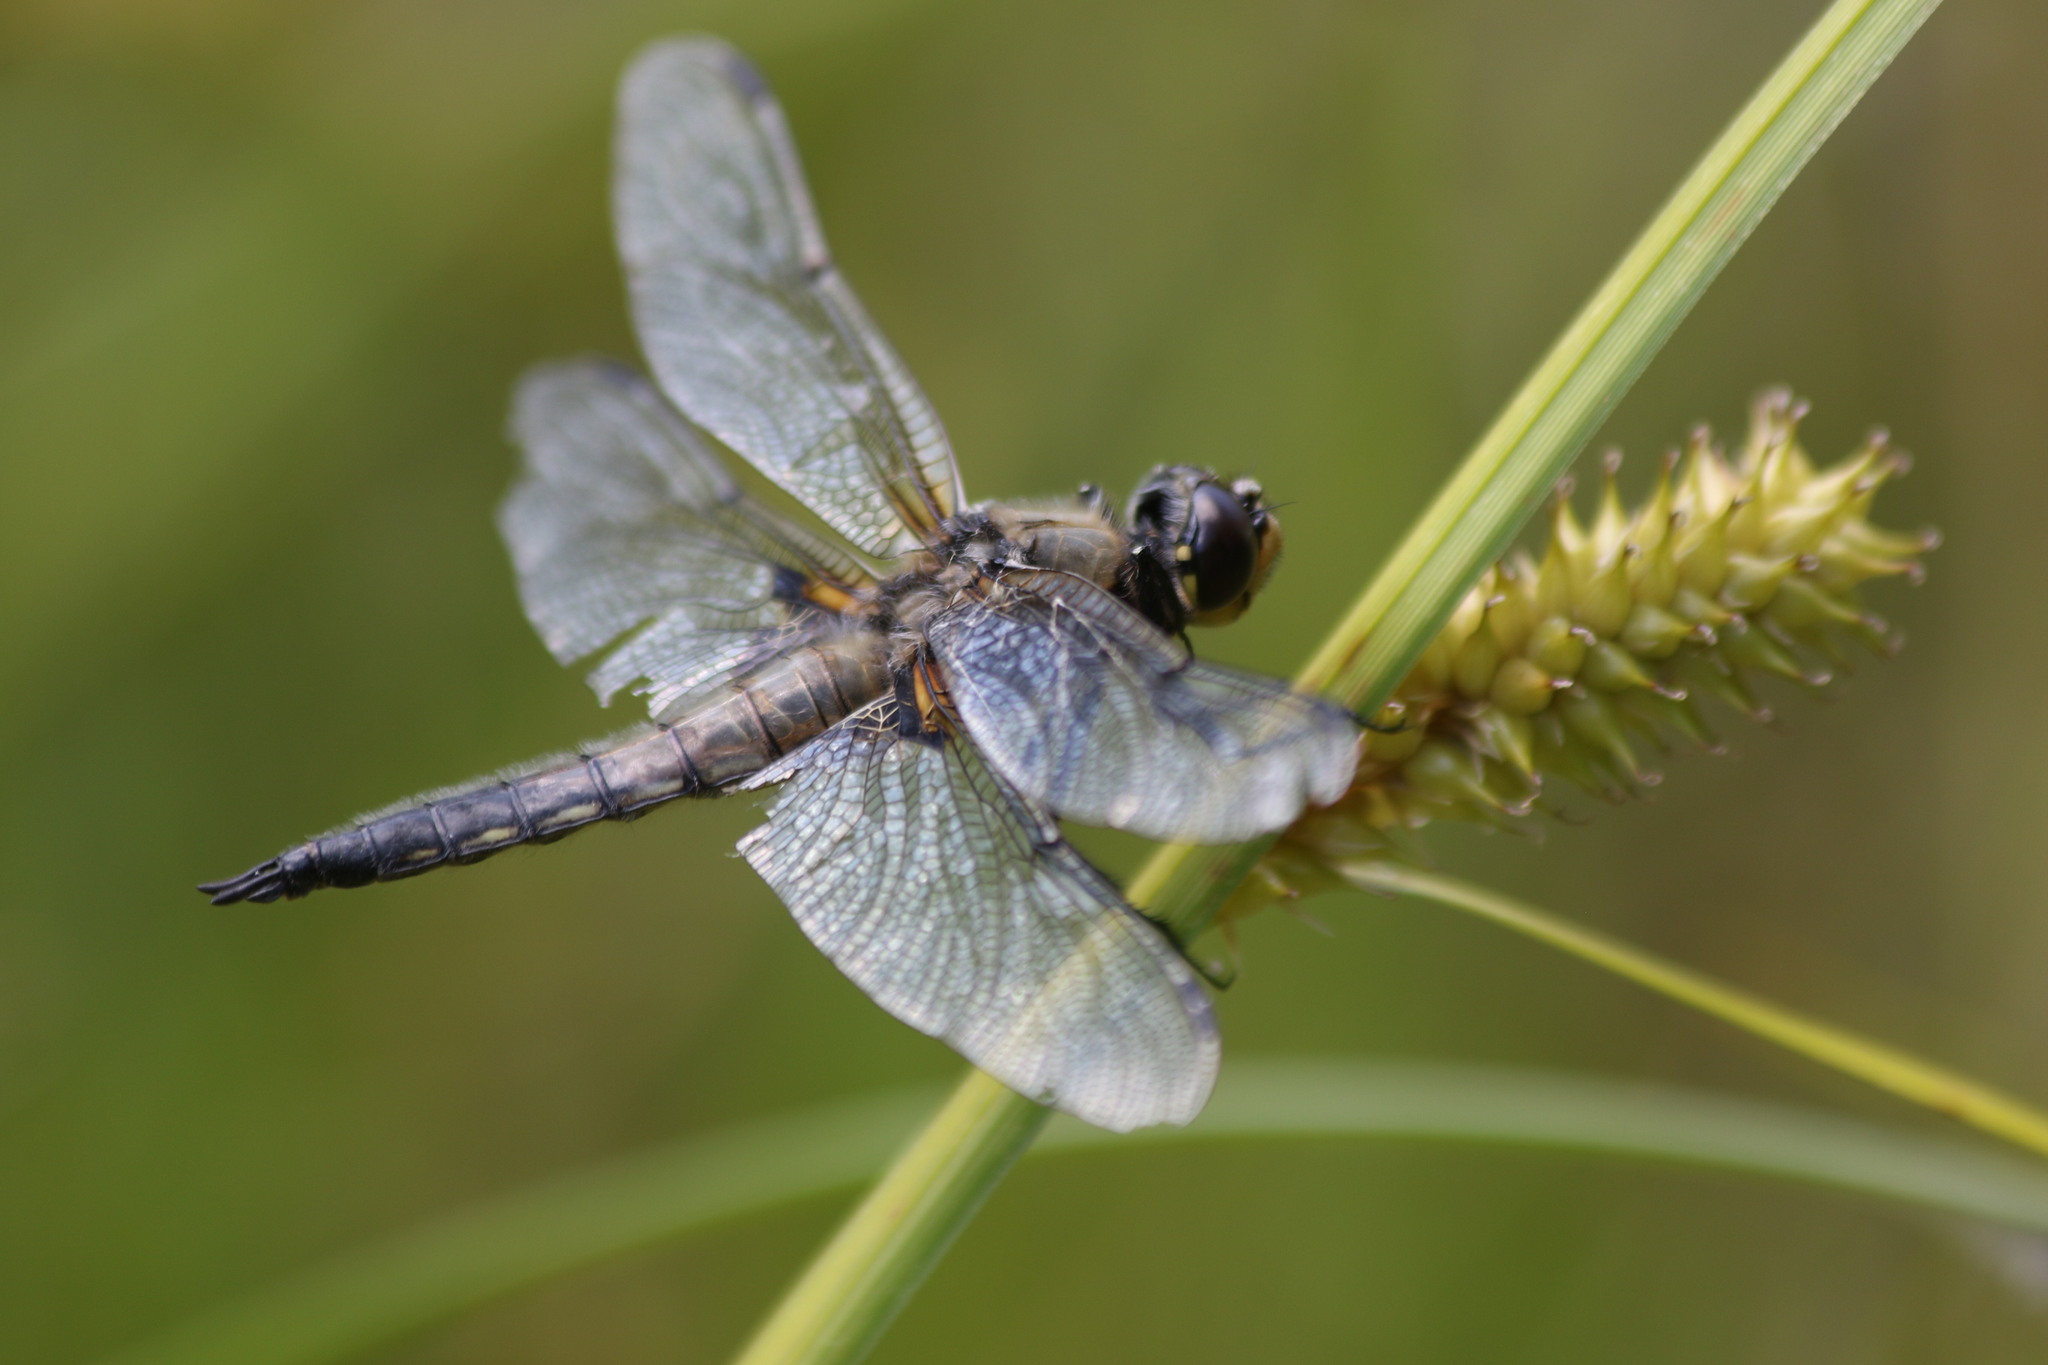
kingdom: Animalia
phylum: Arthropoda
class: Insecta
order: Odonata
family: Libellulidae
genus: Libellula
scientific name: Libellula quadrimaculata
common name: Four-spotted chaser
